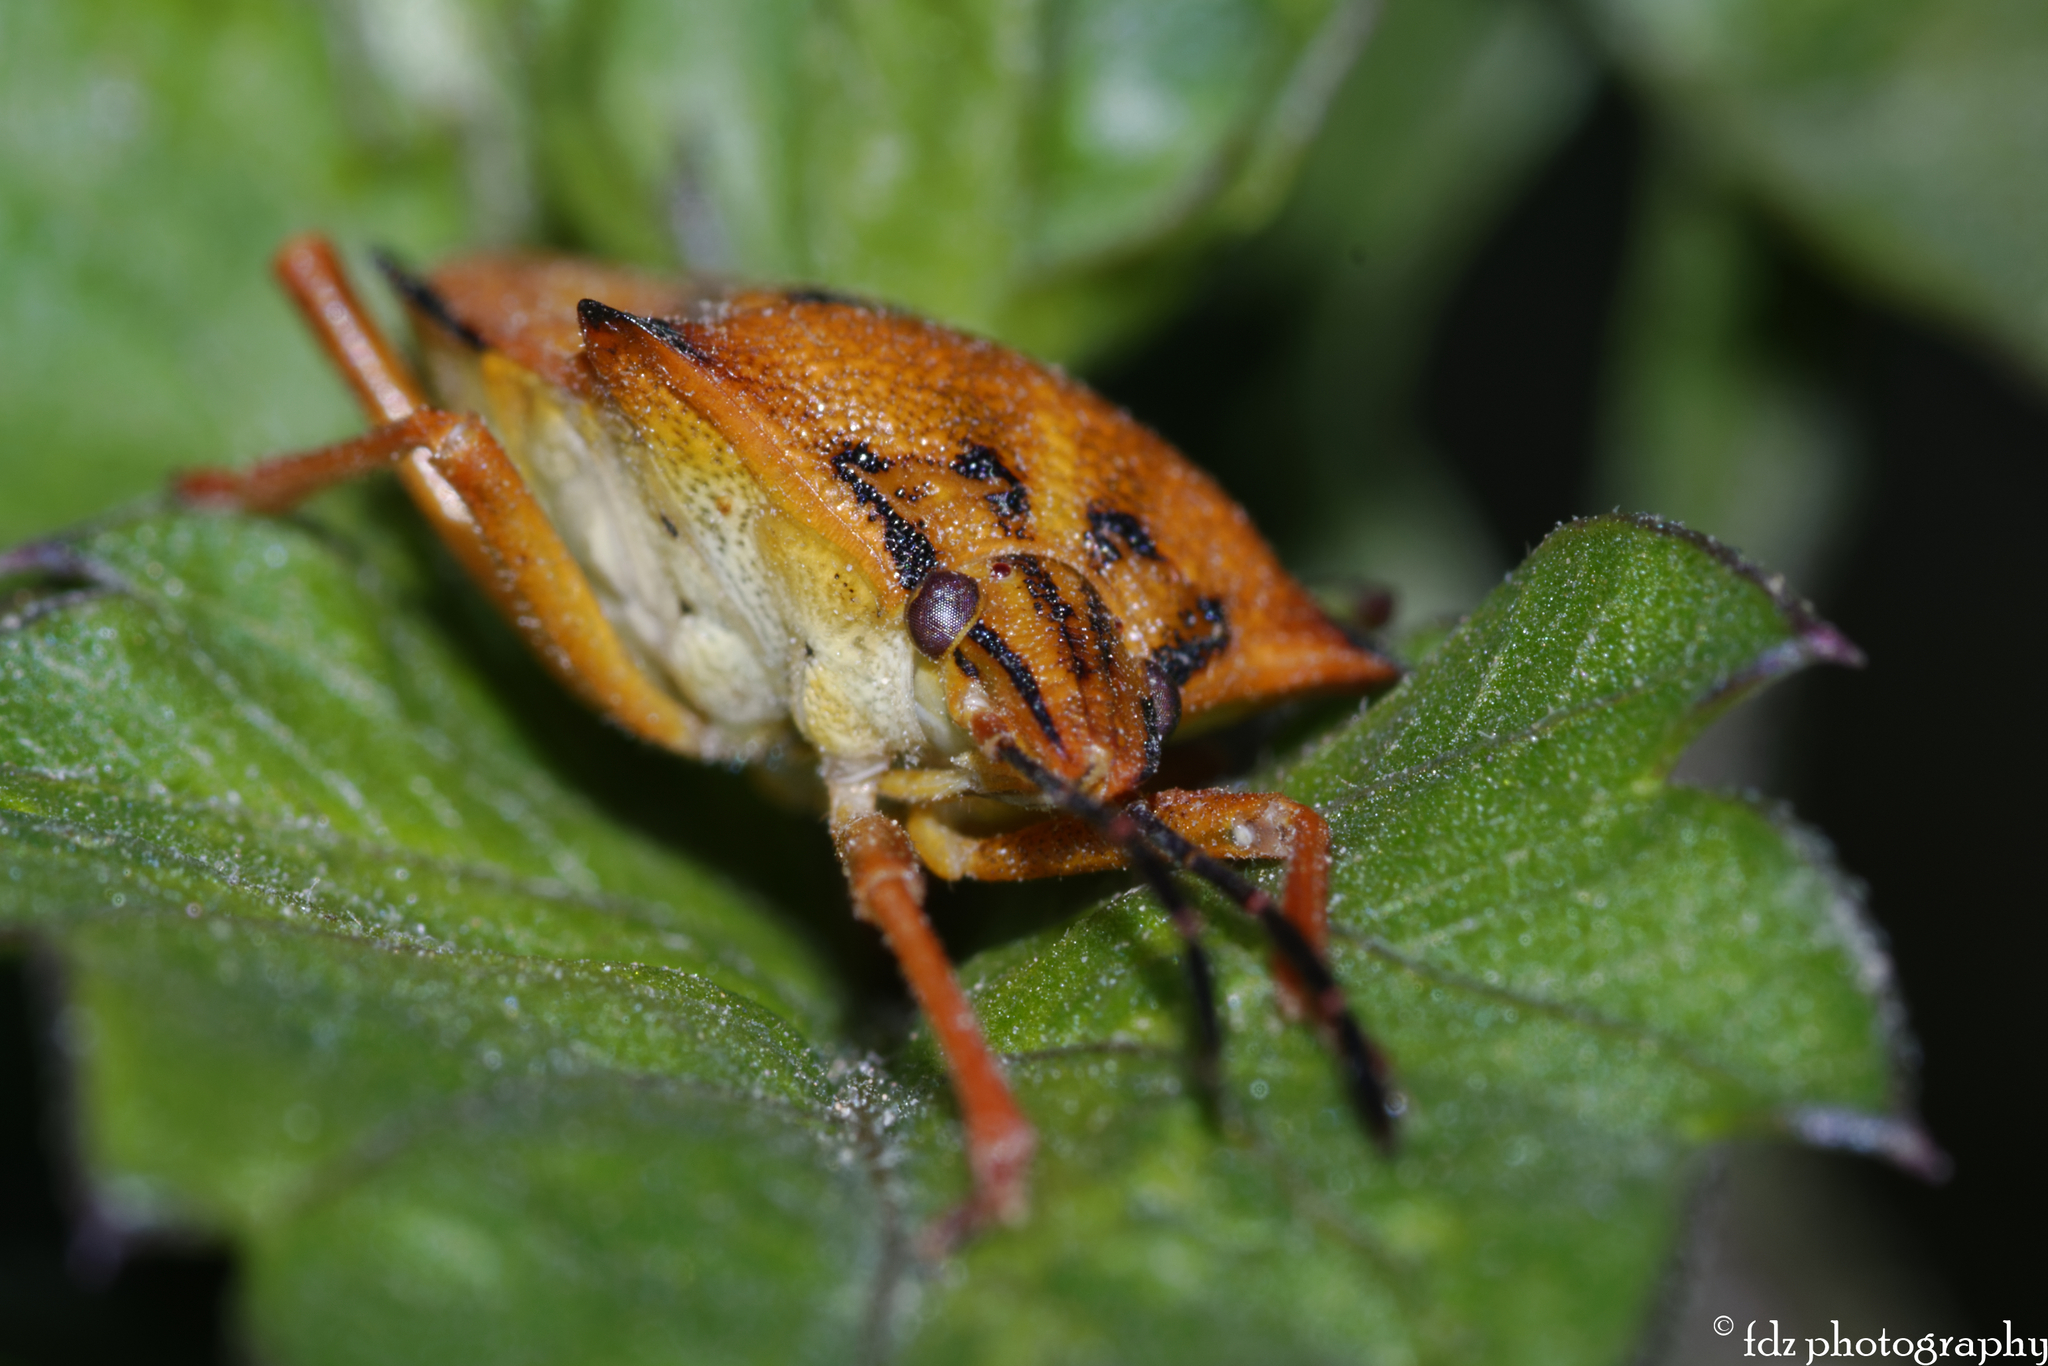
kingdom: Animalia
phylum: Arthropoda
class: Insecta
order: Hemiptera
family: Pentatomidae
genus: Carpocoris
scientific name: Carpocoris mediterraneus
